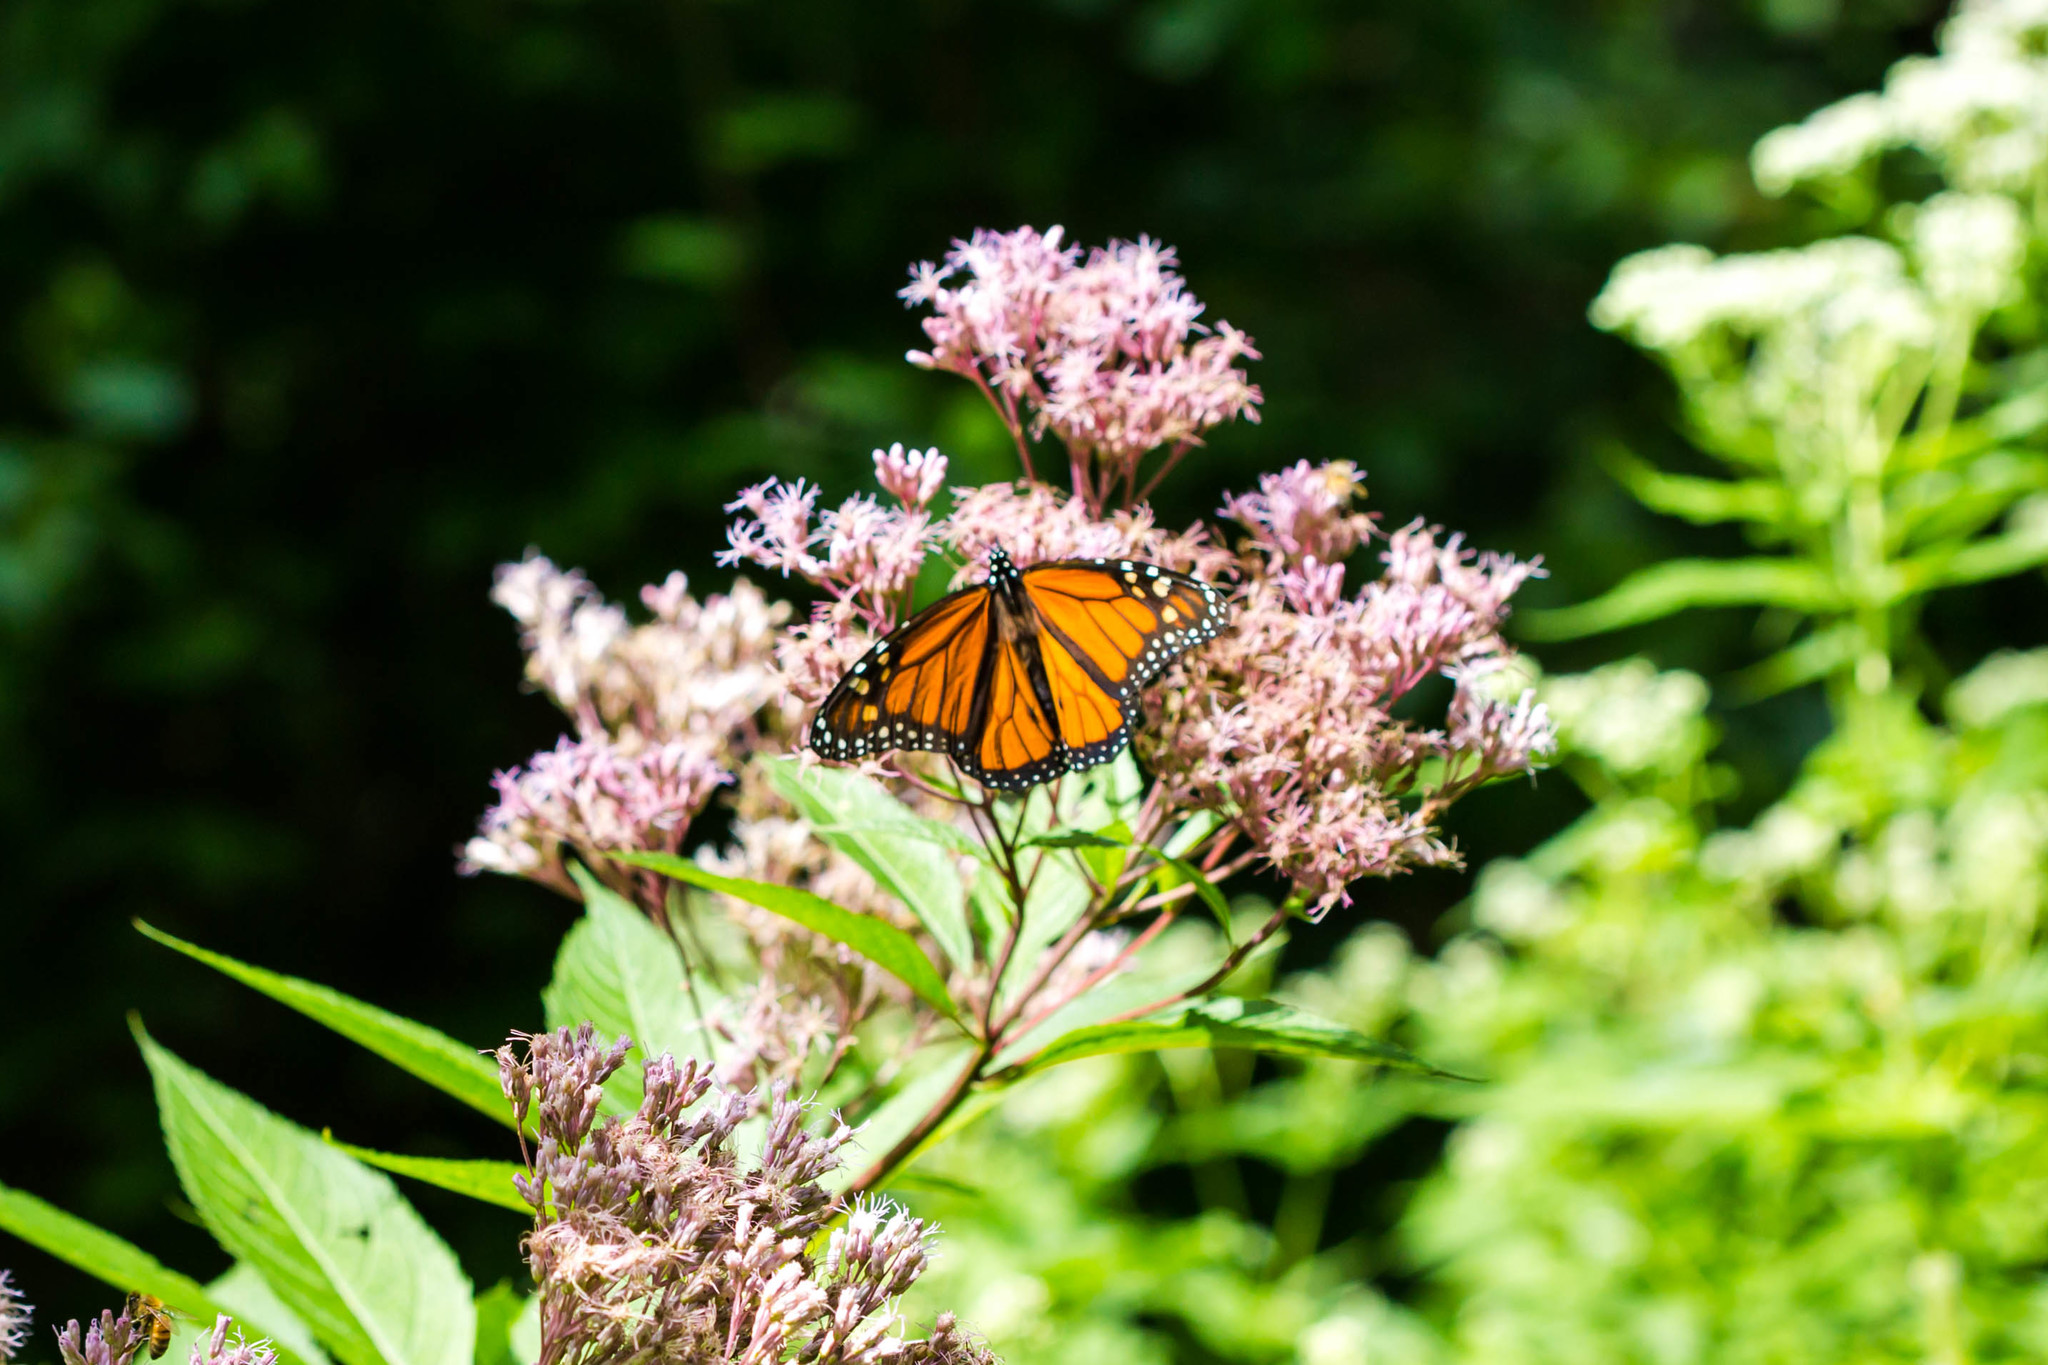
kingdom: Animalia
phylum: Arthropoda
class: Insecta
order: Lepidoptera
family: Nymphalidae
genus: Danaus
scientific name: Danaus plexippus
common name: Monarch
